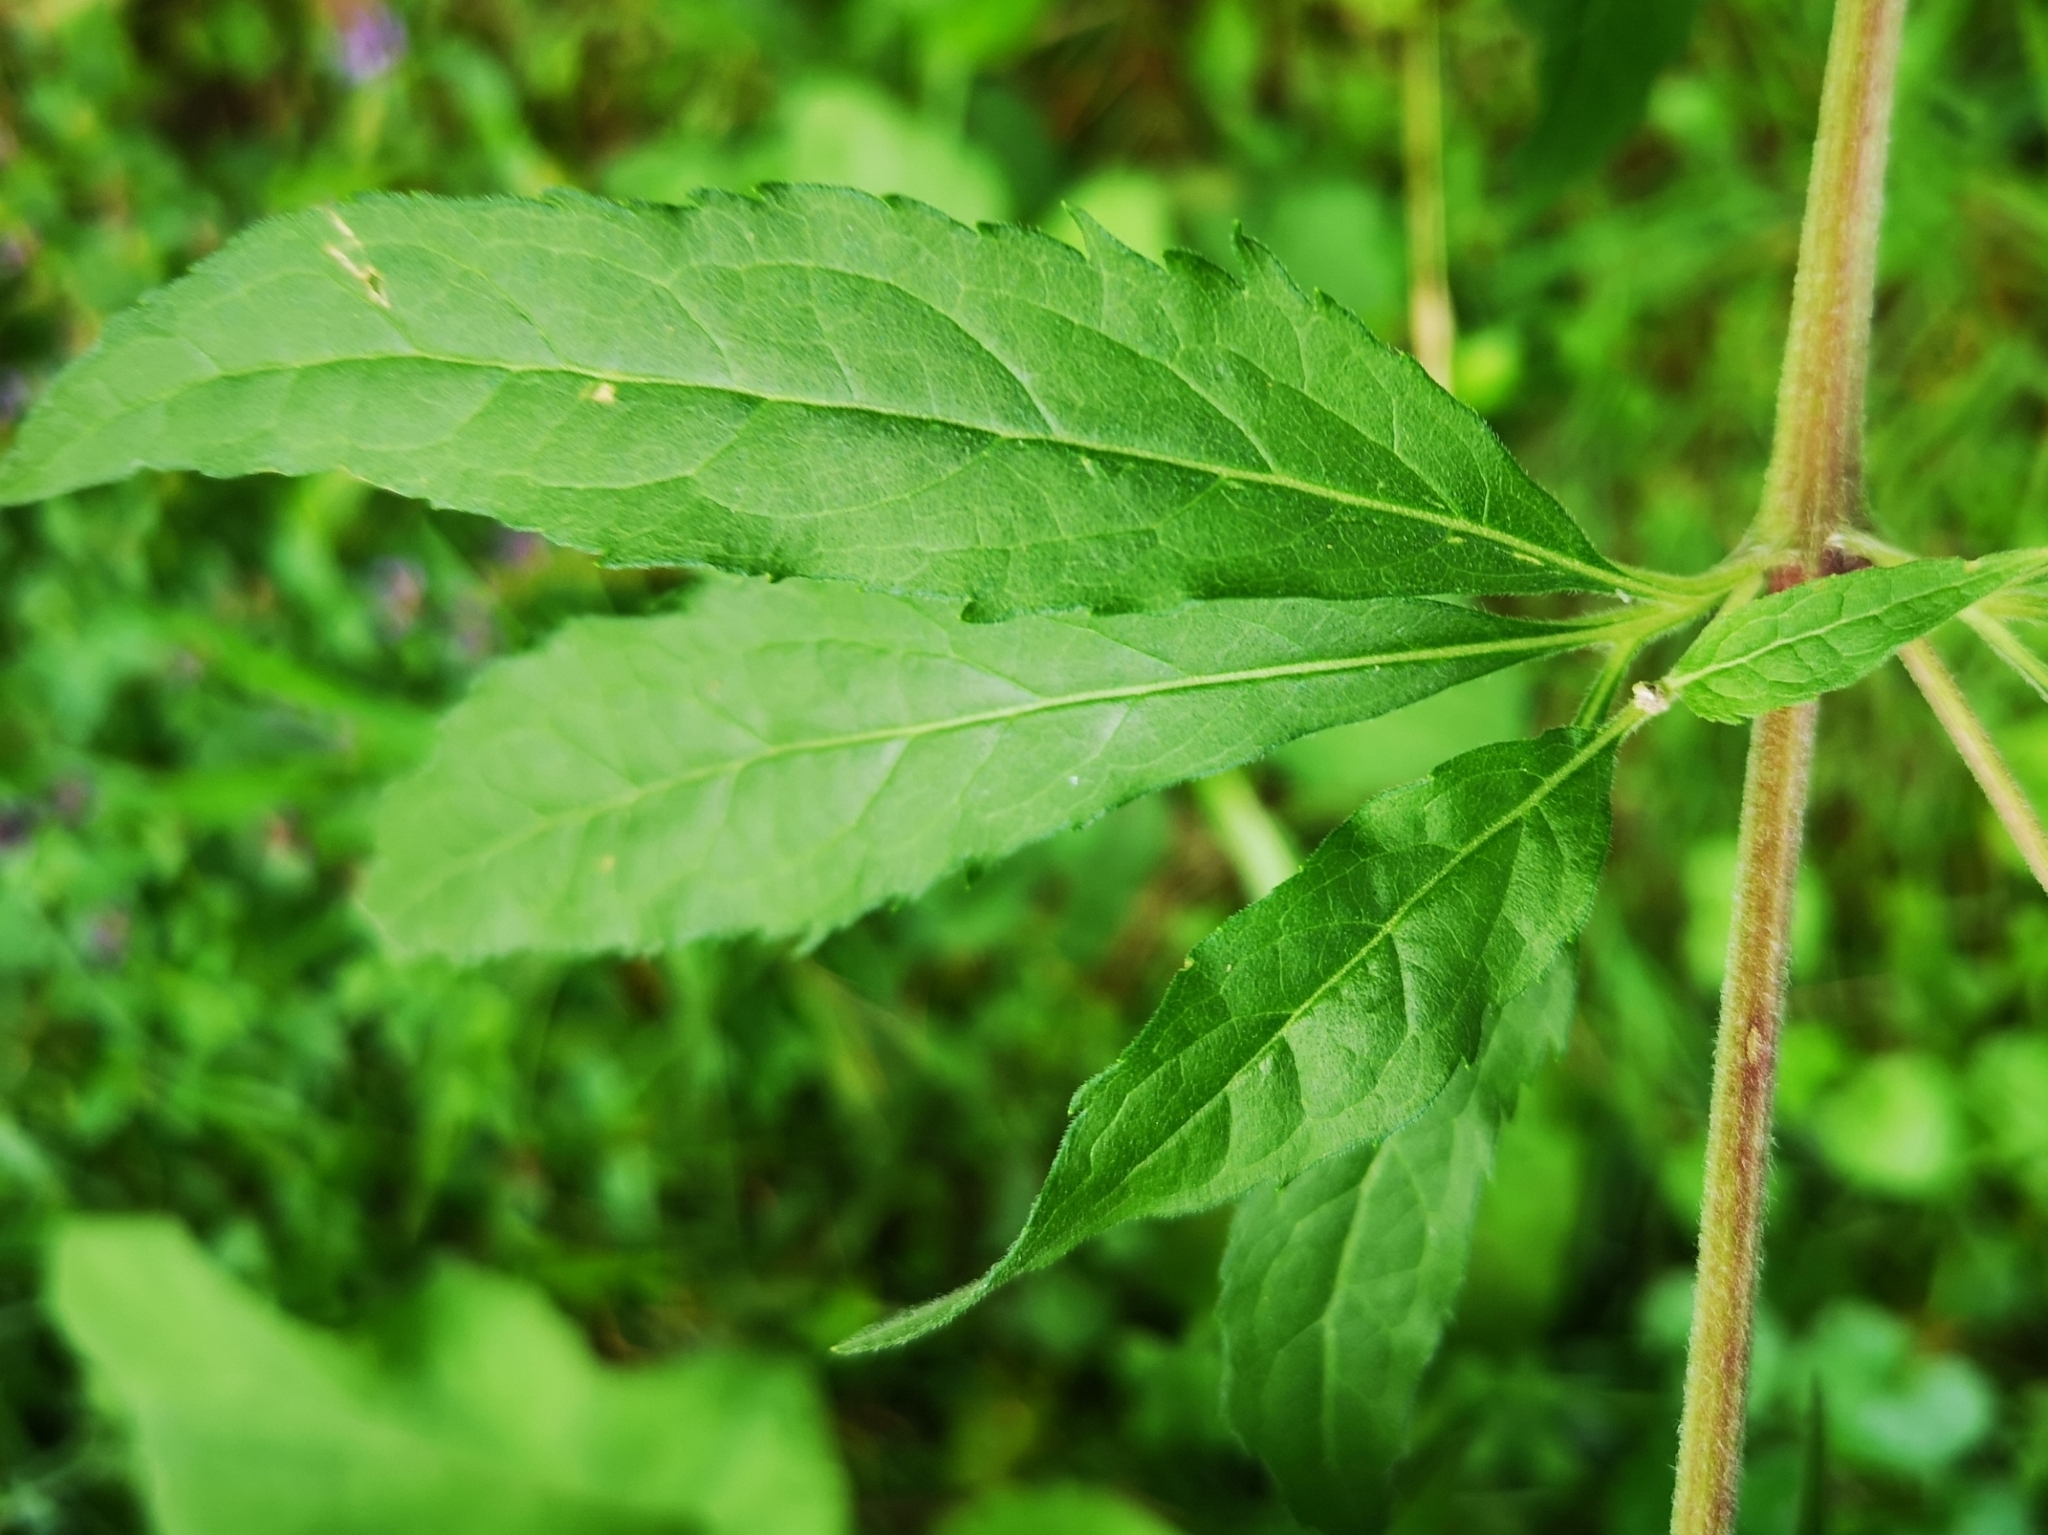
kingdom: Plantae
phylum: Tracheophyta
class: Magnoliopsida
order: Asterales
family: Asteraceae
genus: Eupatorium
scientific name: Eupatorium cannabinum
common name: Hemp-agrimony
